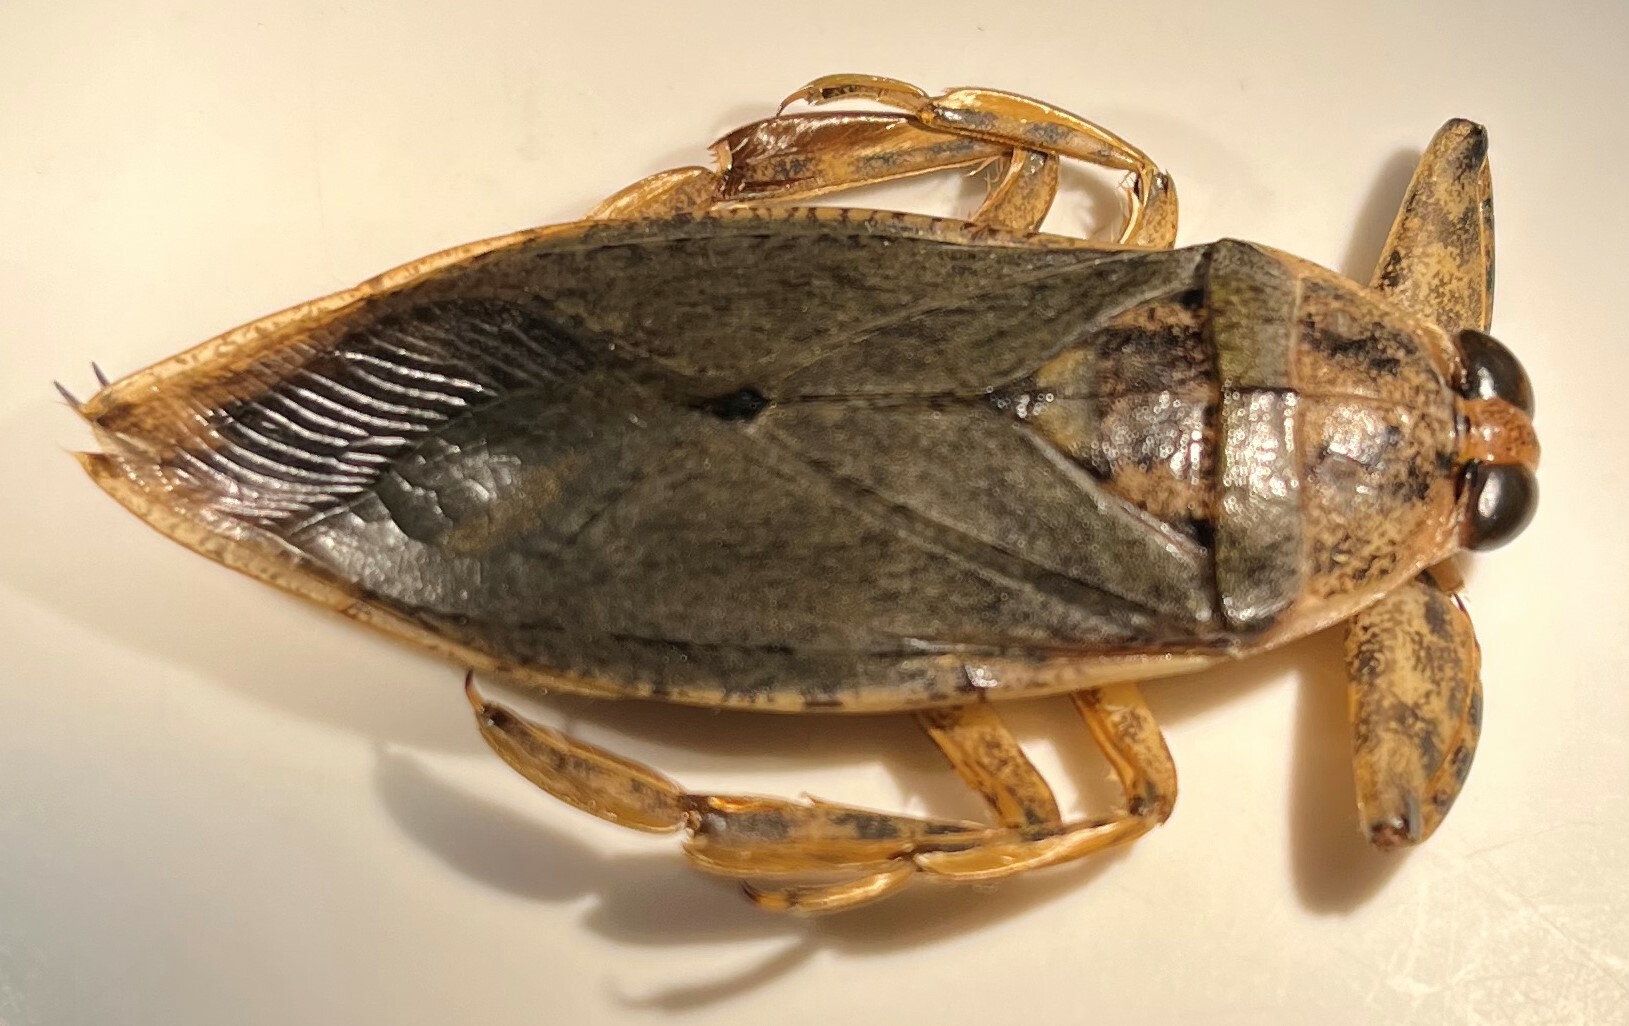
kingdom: Animalia
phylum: Arthropoda
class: Insecta
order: Hemiptera
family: Belostomatidae
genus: Lethocerus
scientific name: Lethocerus medius
